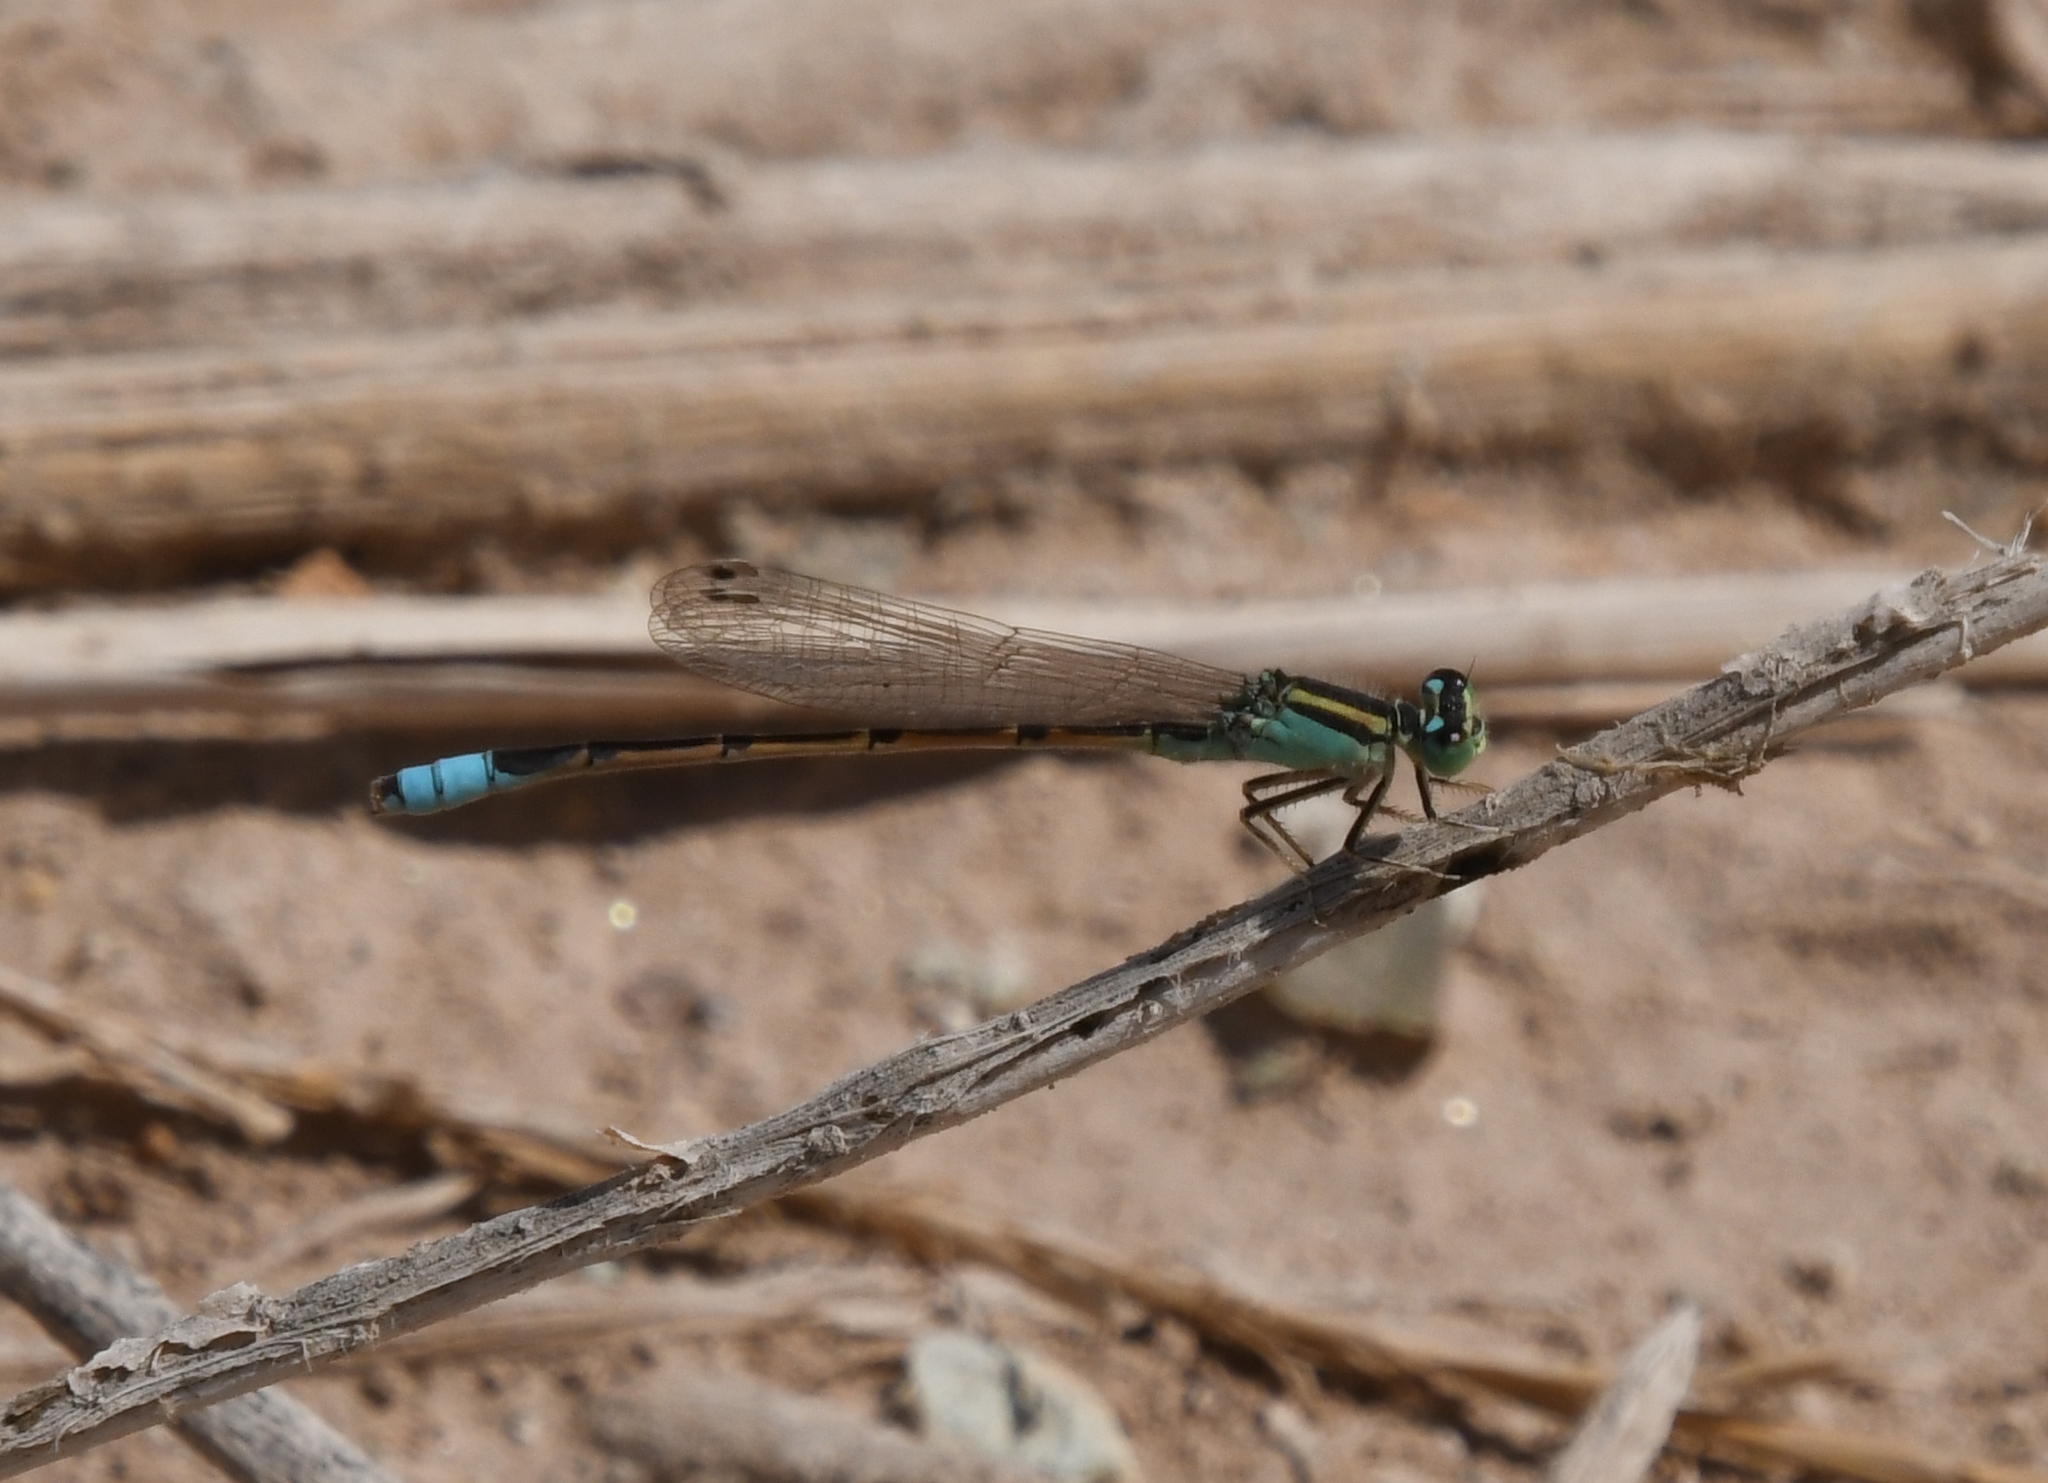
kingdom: Animalia
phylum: Arthropoda
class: Insecta
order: Odonata
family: Coenagrionidae
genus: Ischnura
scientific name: Ischnura barberi
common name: Desert forktail
